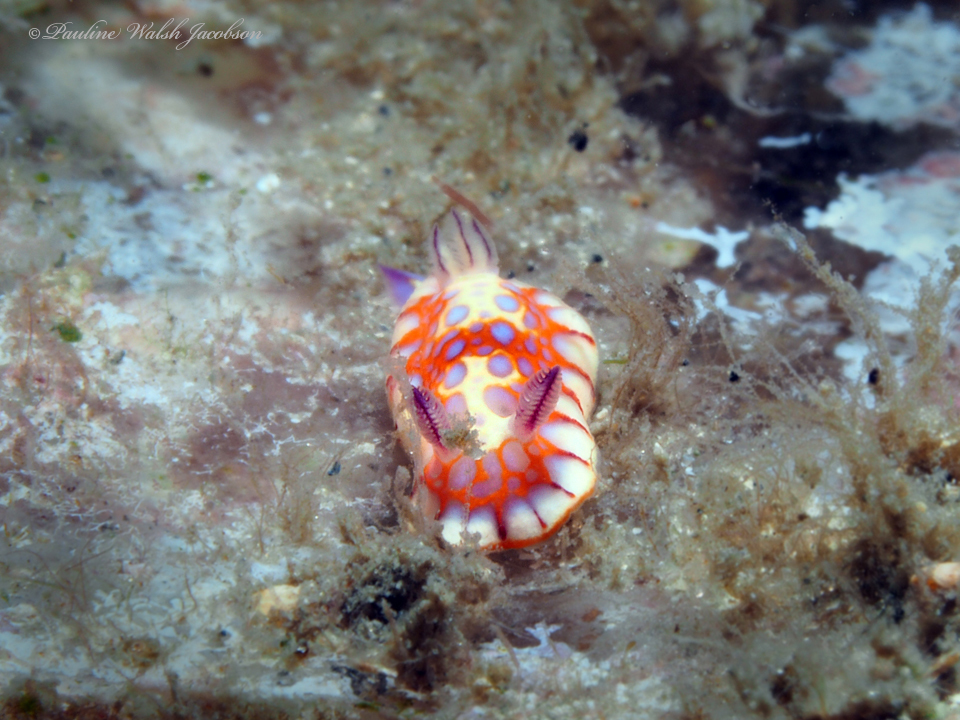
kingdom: Animalia
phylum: Mollusca
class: Gastropoda
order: Nudibranchia
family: Chromodorididae
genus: Felimida
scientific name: Felimida binza
